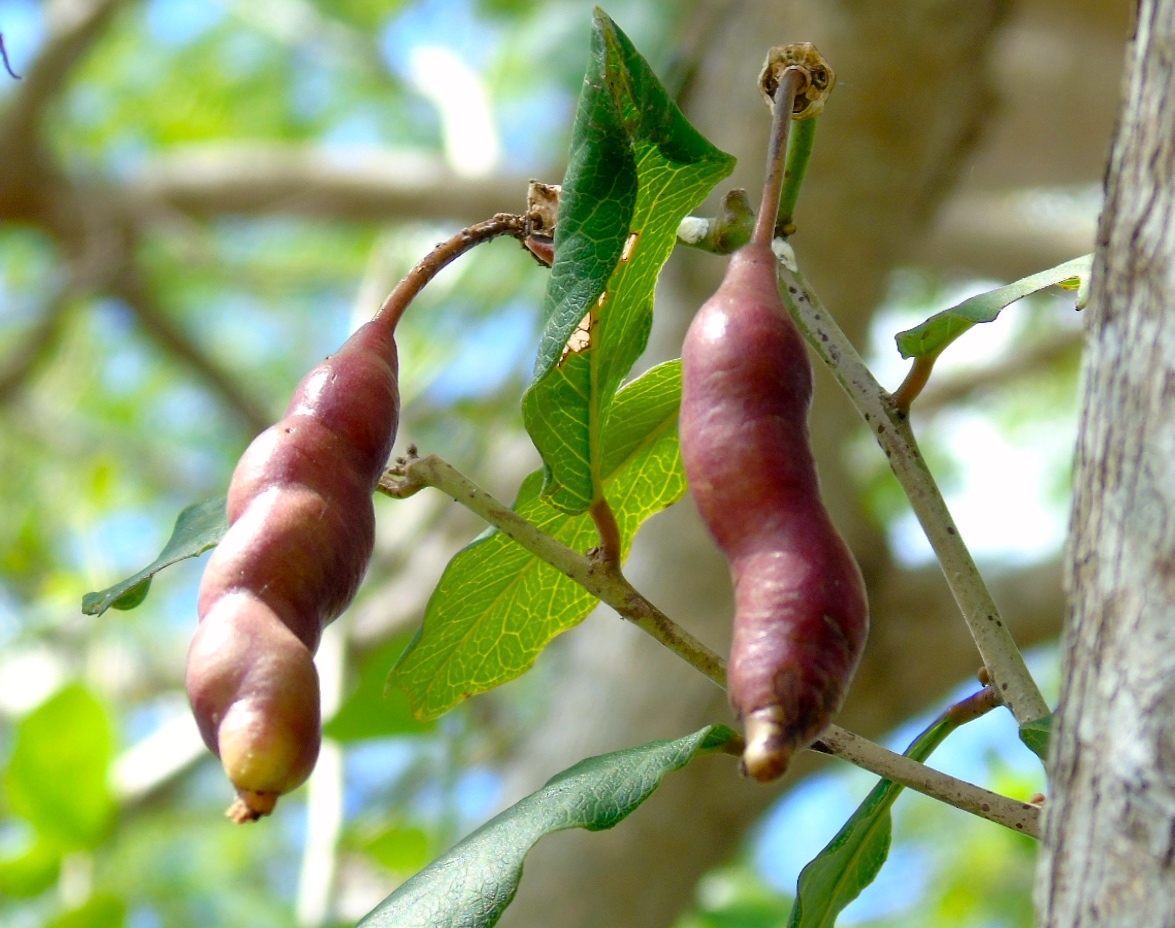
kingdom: Plantae
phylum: Tracheophyta
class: Magnoliopsida
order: Brassicales
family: Capparaceae
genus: Cynophalla
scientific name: Cynophalla flexuosa
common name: Capertree
